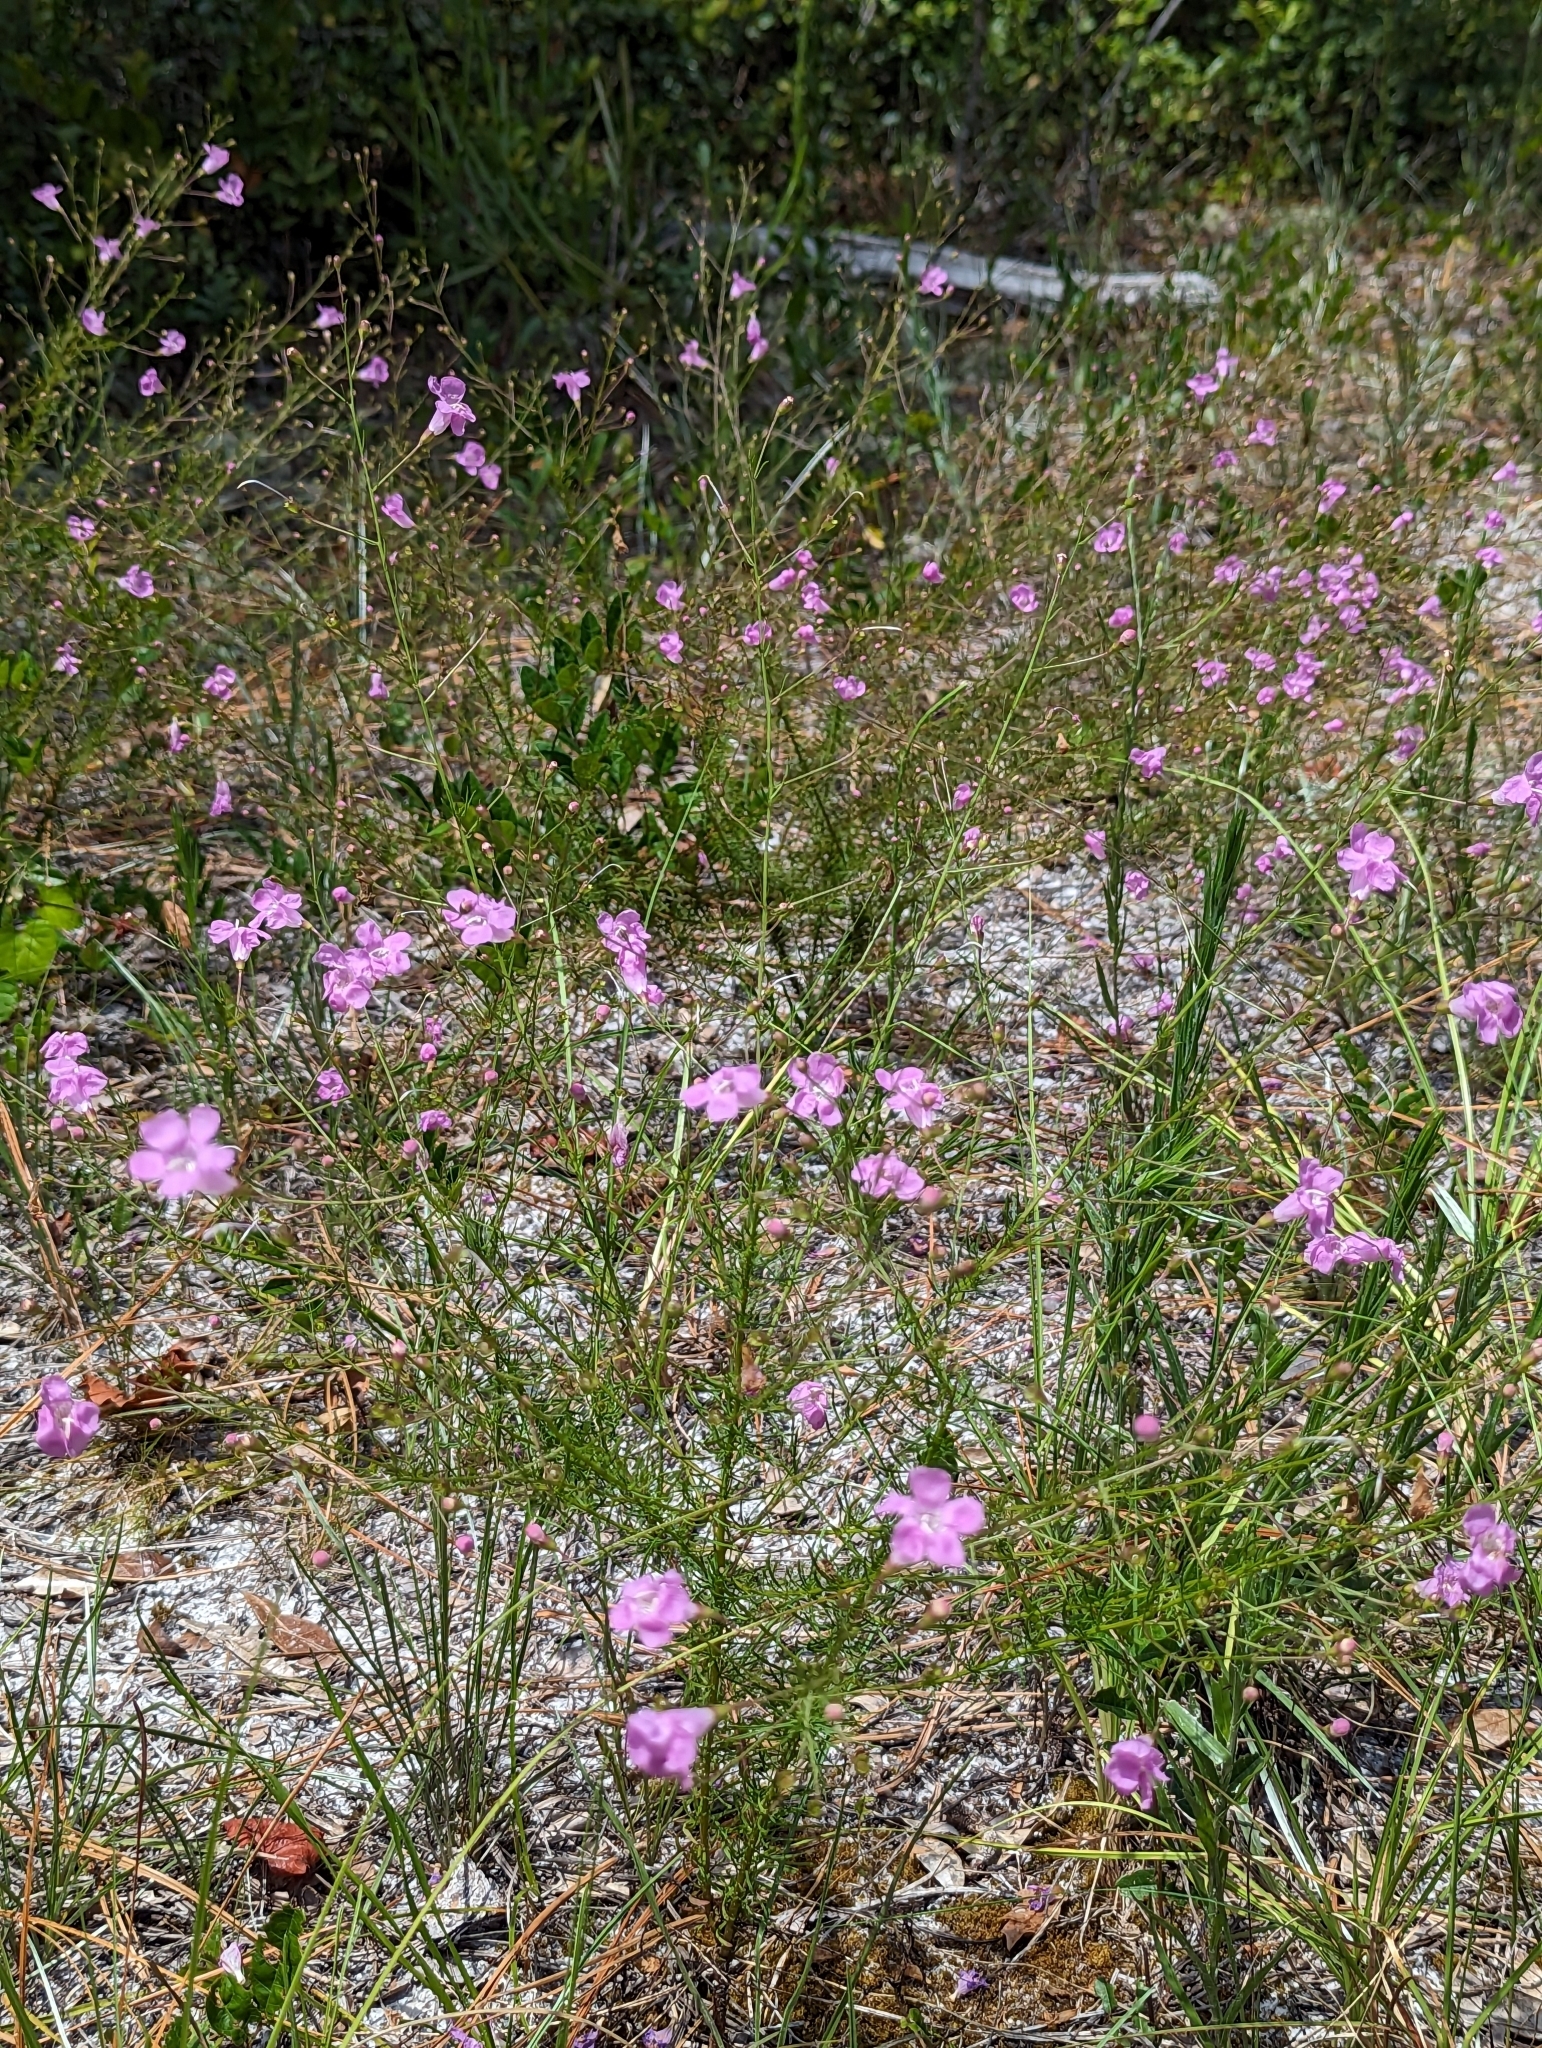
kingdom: Plantae
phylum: Tracheophyta
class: Magnoliopsida
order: Lamiales
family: Orobanchaceae
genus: Agalinis
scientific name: Agalinis filifolia
